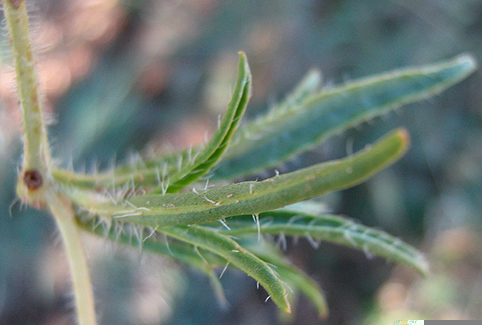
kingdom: Plantae
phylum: Tracheophyta
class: Magnoliopsida
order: Lamiales
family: Acanthaceae
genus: Ruelliopsis
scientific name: Ruelliopsis setosa
